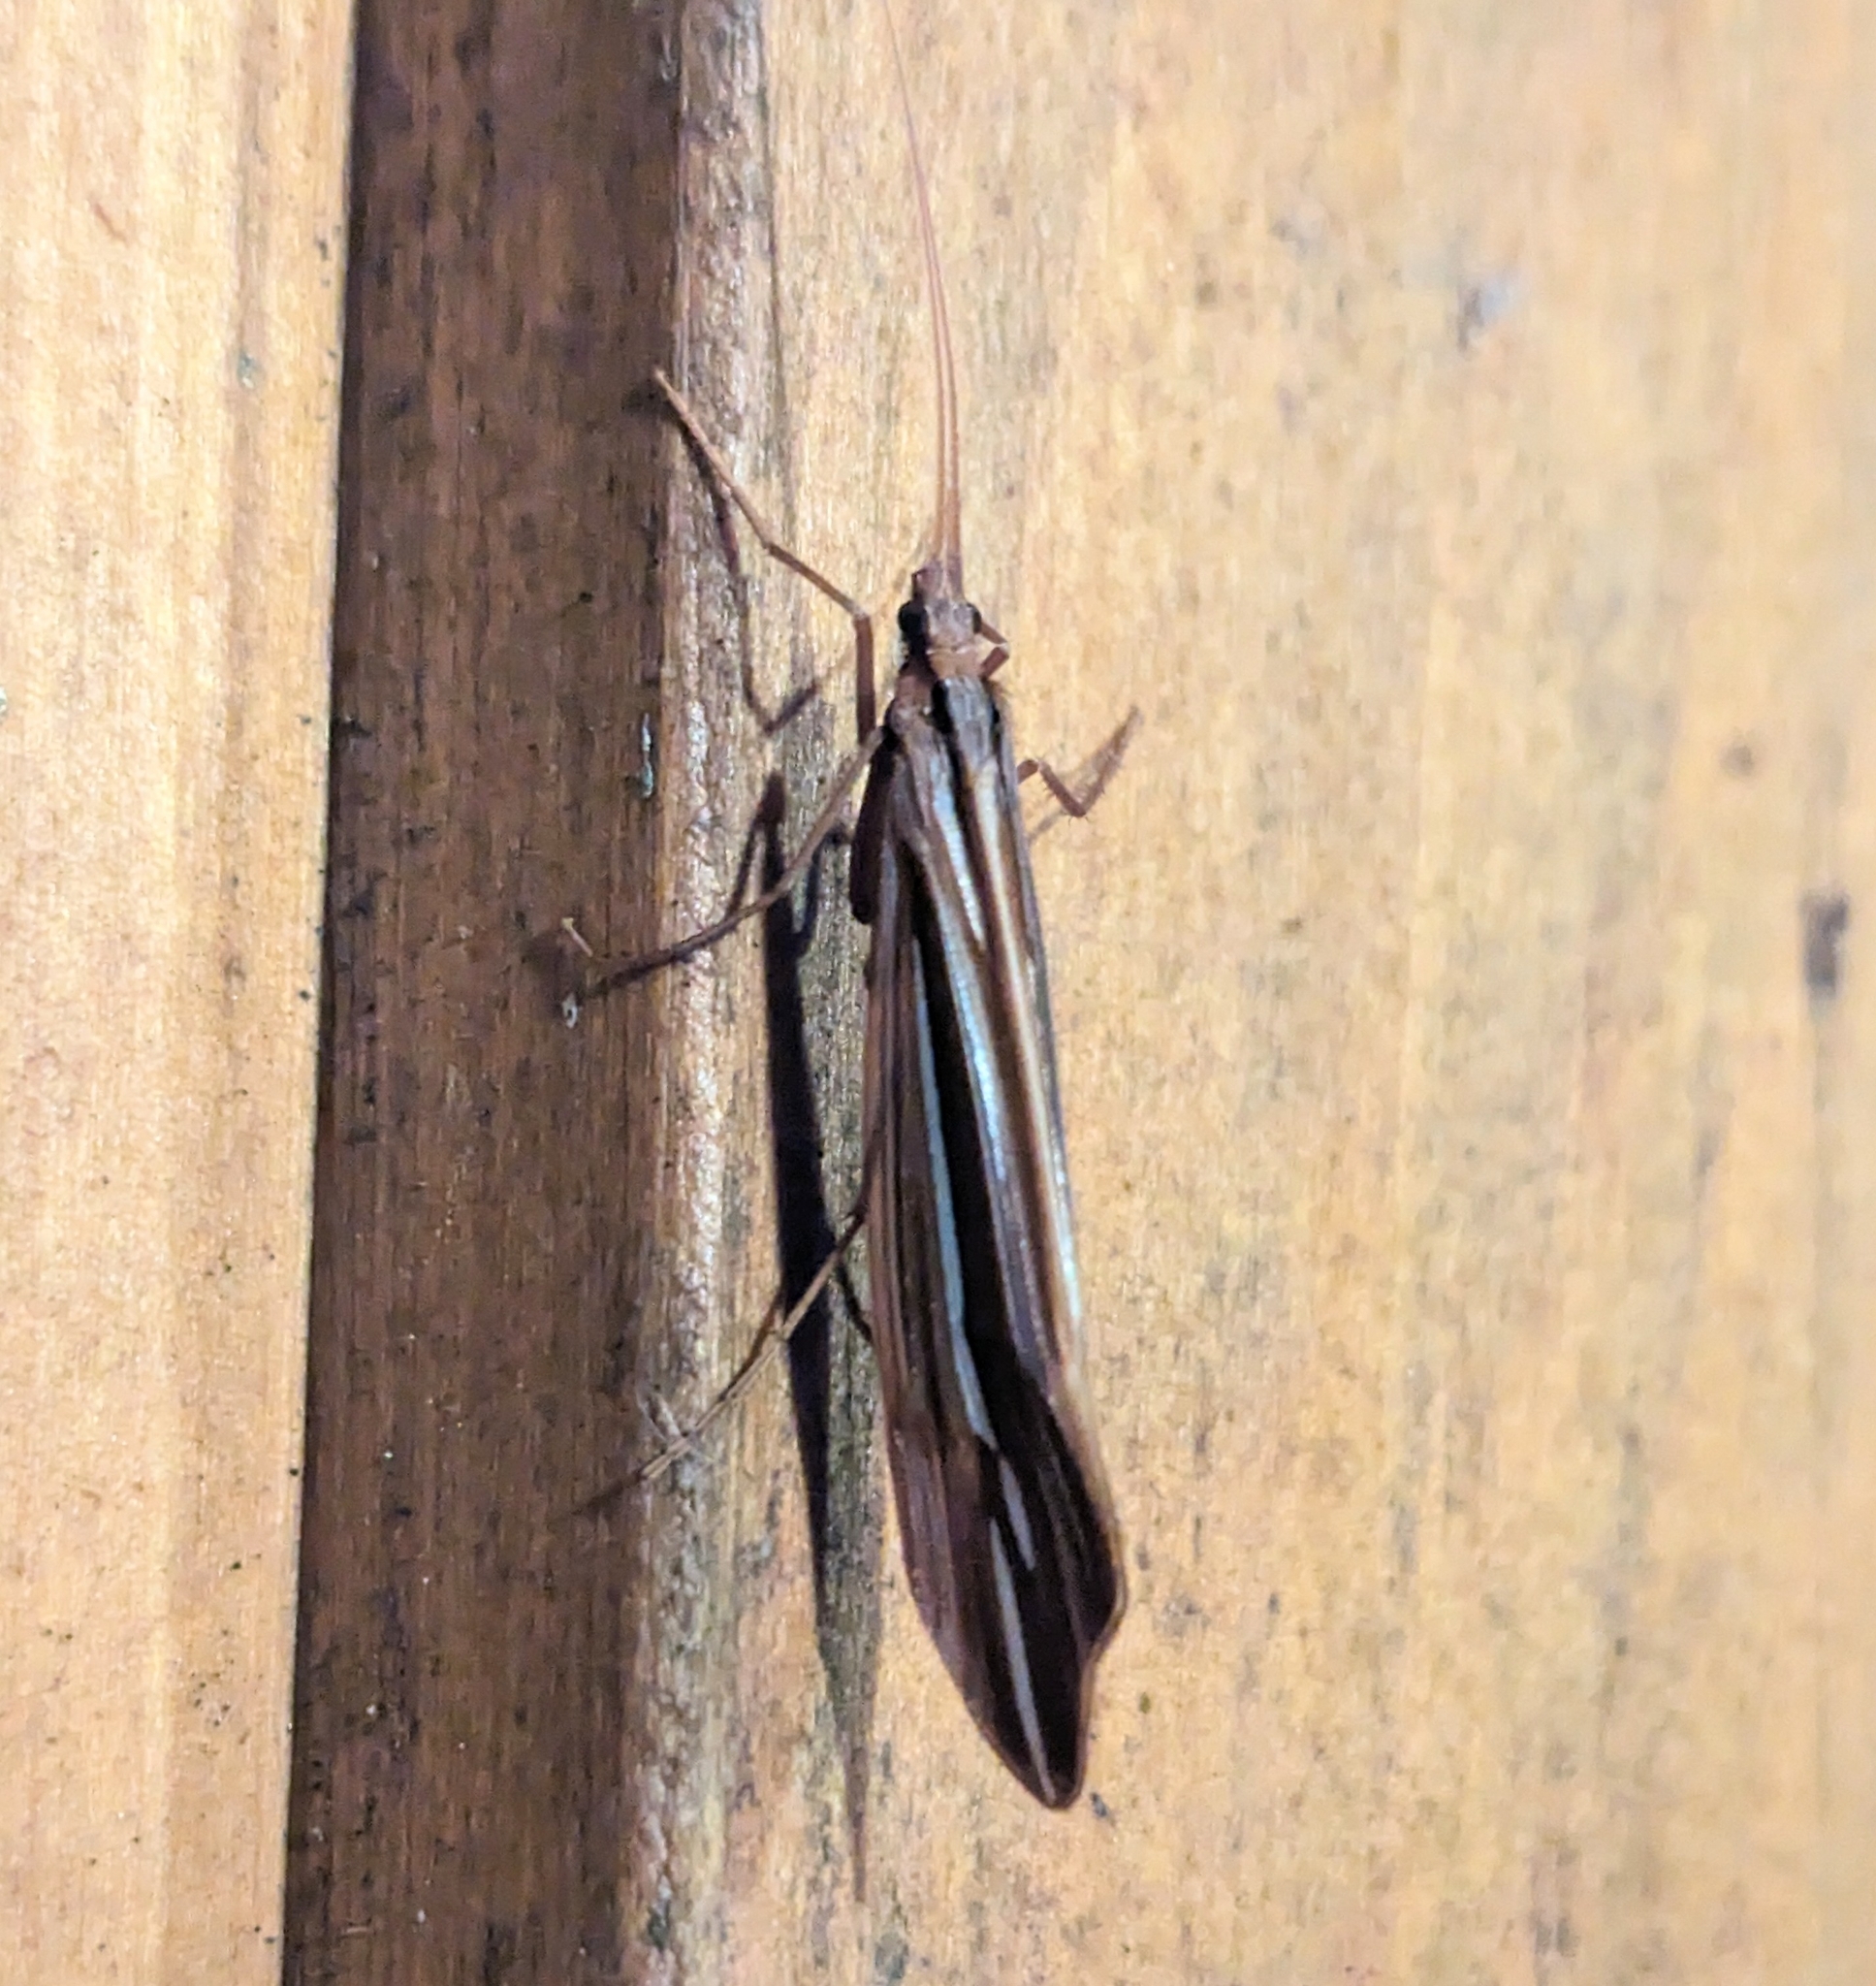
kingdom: Animalia
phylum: Arthropoda
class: Insecta
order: Trichoptera
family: Limnephilidae
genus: Psychoglypha
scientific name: Psychoglypha bella
